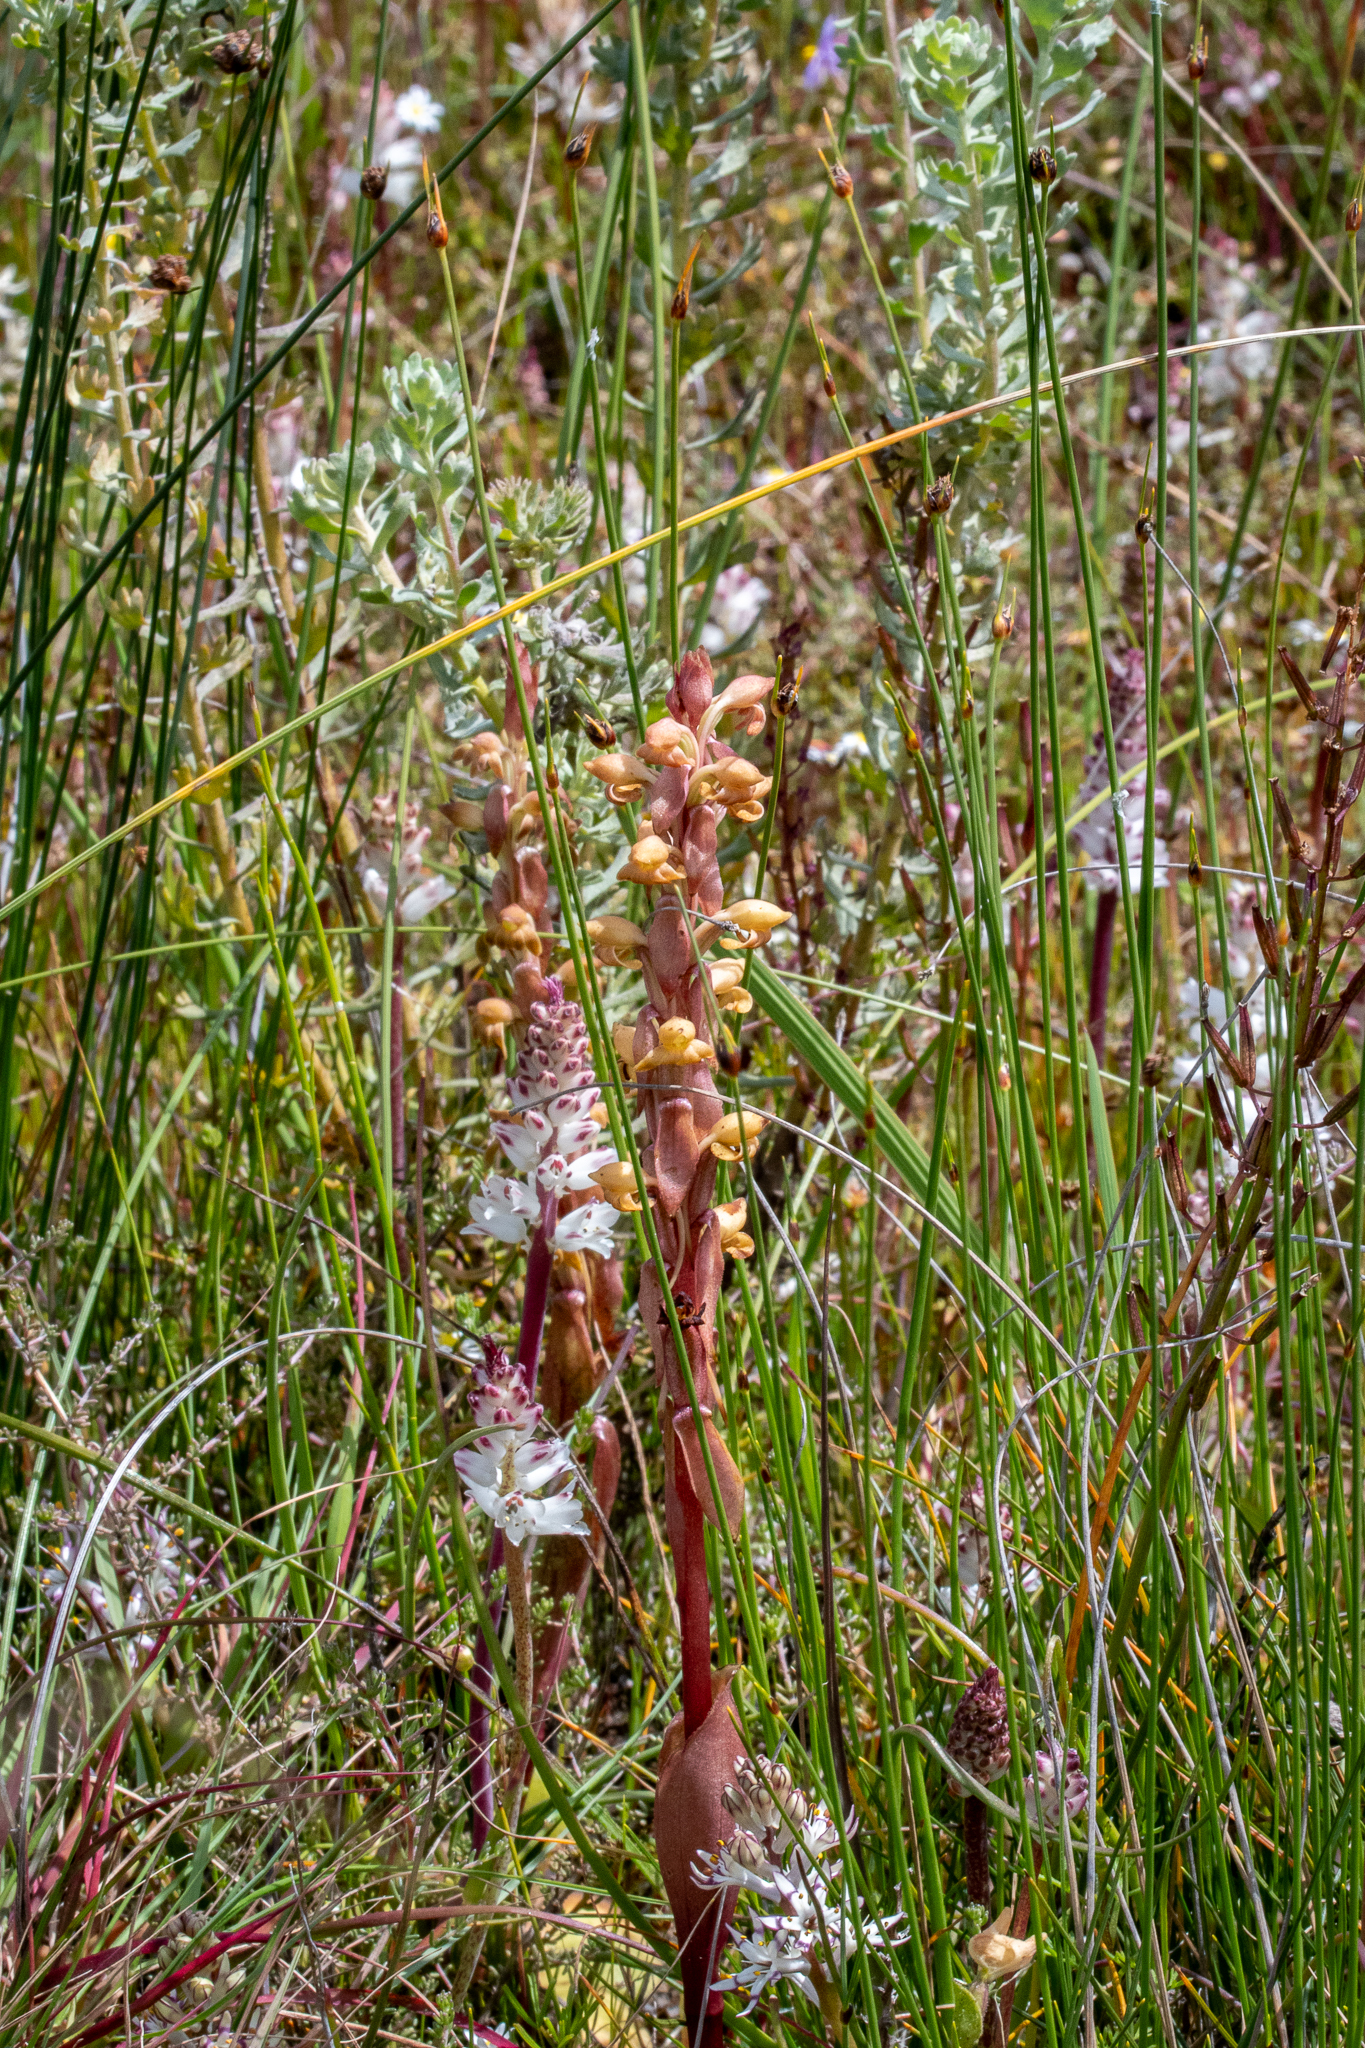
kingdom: Plantae
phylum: Tracheophyta
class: Liliopsida
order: Asparagales
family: Orchidaceae
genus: Satyrium
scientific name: Satyrium bicorne
